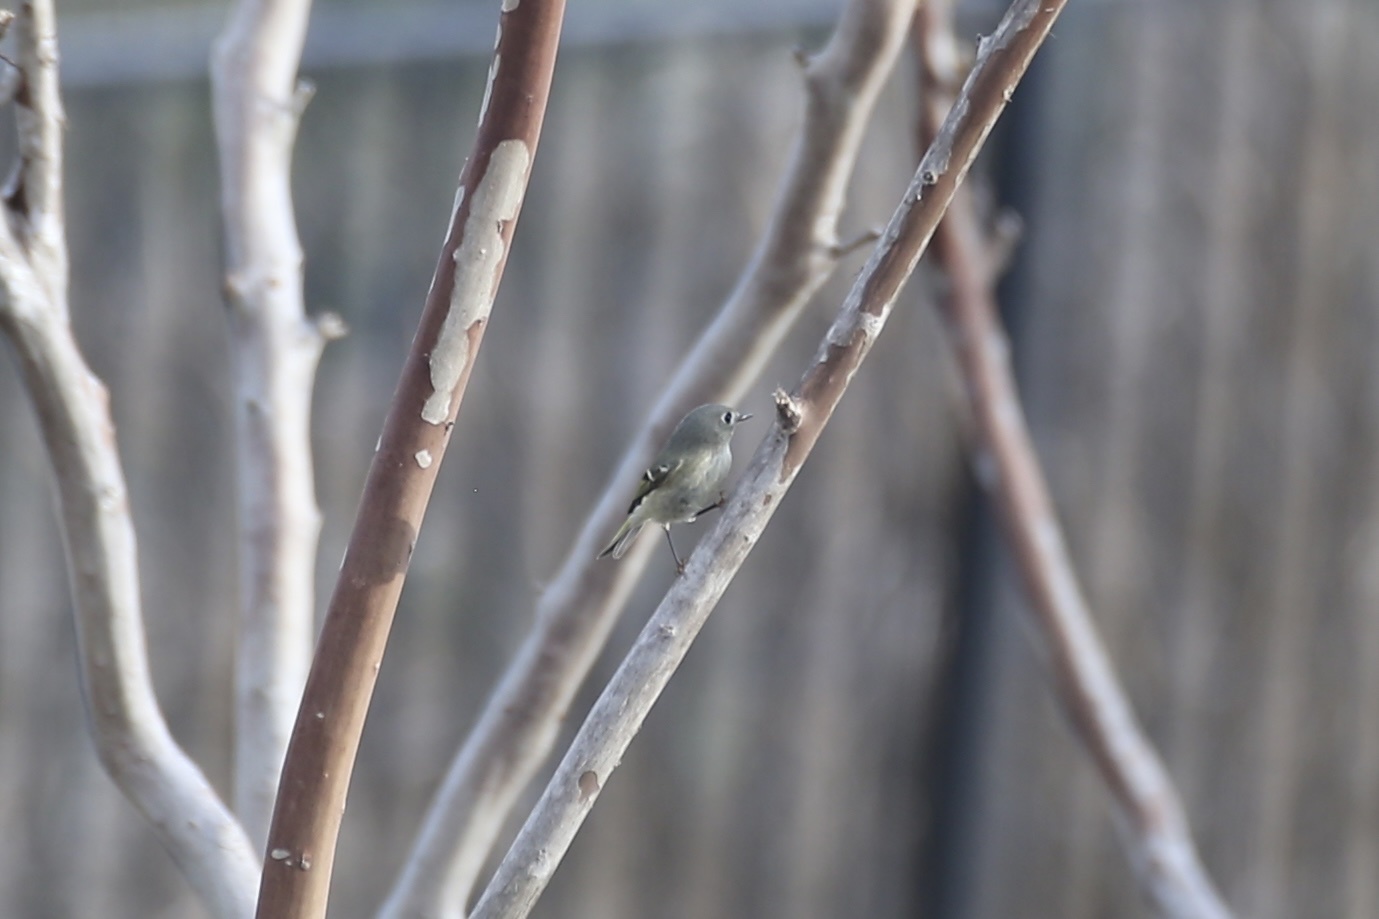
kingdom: Animalia
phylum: Chordata
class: Aves
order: Passeriformes
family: Regulidae
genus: Regulus
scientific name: Regulus calendula
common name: Ruby-crowned kinglet
